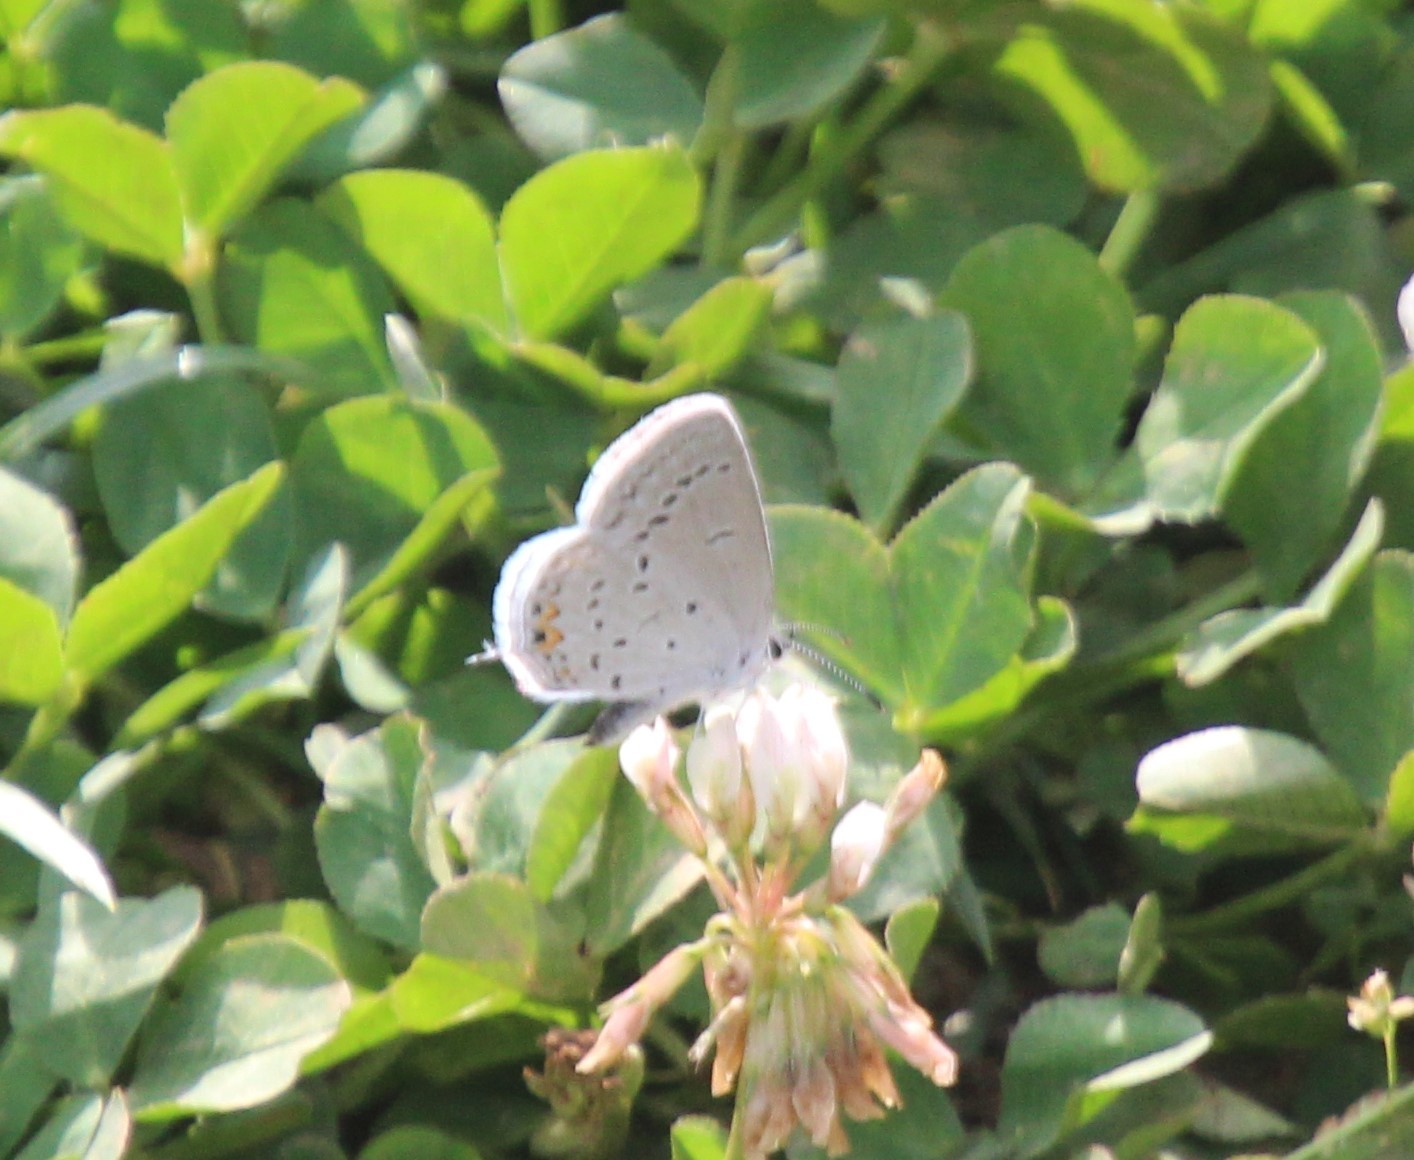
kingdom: Animalia
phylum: Arthropoda
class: Insecta
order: Lepidoptera
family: Lycaenidae
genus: Elkalyce
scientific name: Elkalyce comyntas
